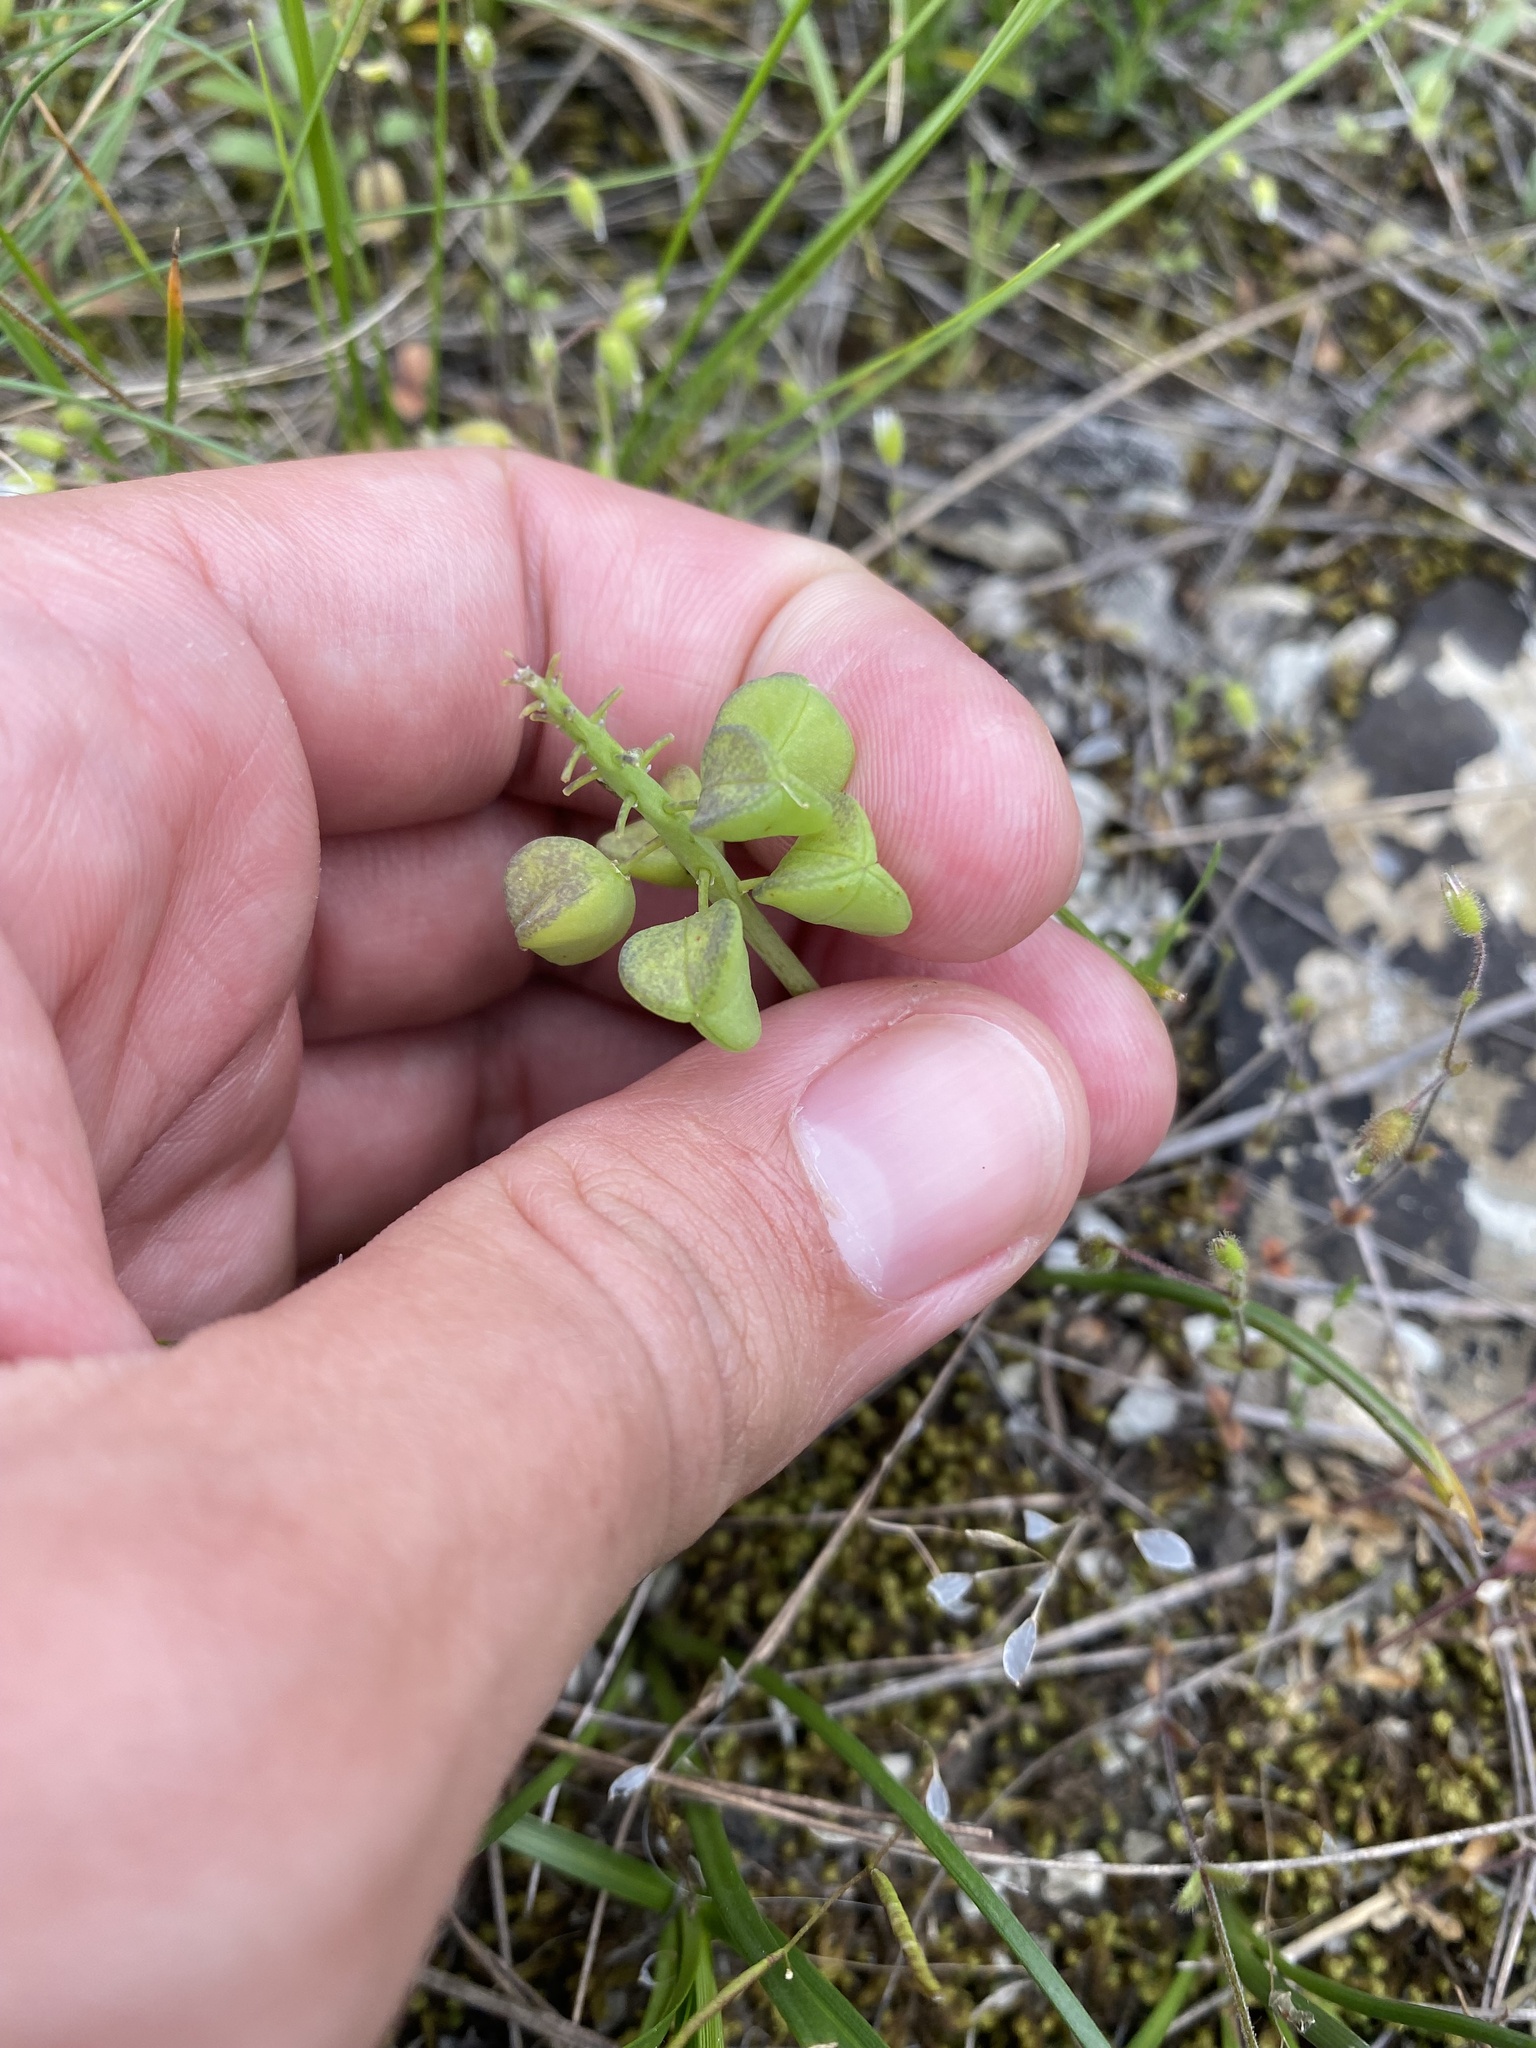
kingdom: Plantae
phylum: Tracheophyta
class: Liliopsida
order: Asparagales
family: Asparagaceae
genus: Muscari
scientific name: Muscari neglectum
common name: Grape-hyacinth
